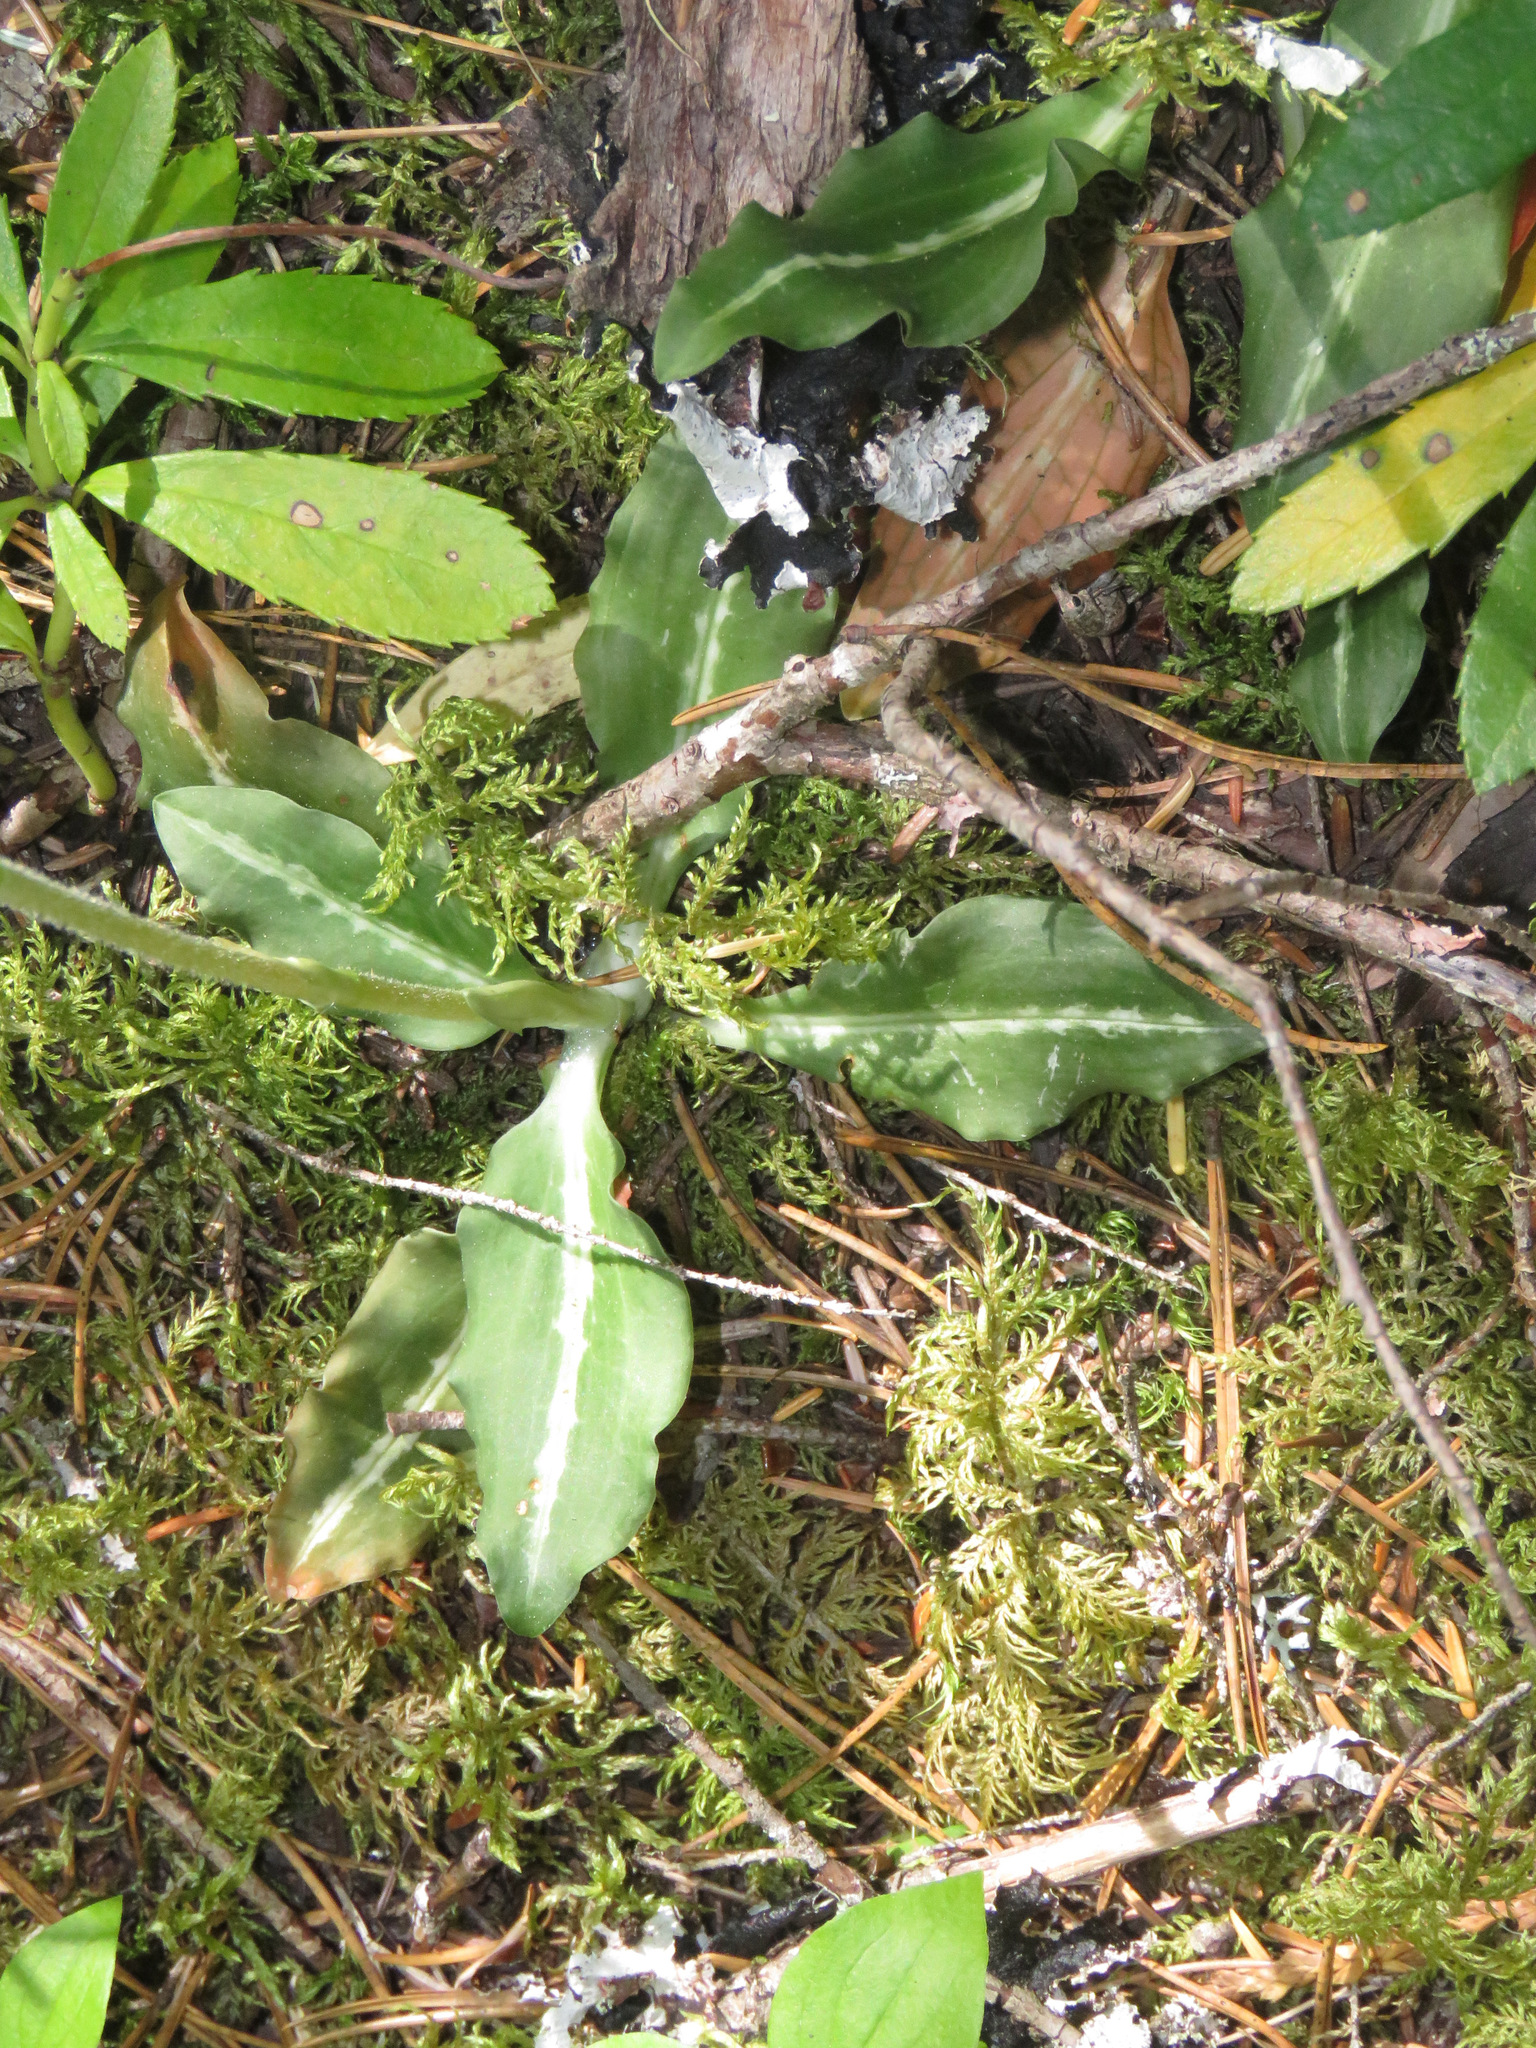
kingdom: Plantae
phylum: Tracheophyta
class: Liliopsida
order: Asparagales
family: Orchidaceae
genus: Goodyera
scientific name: Goodyera oblongifolia
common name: Giant rattlesnake-plantain
